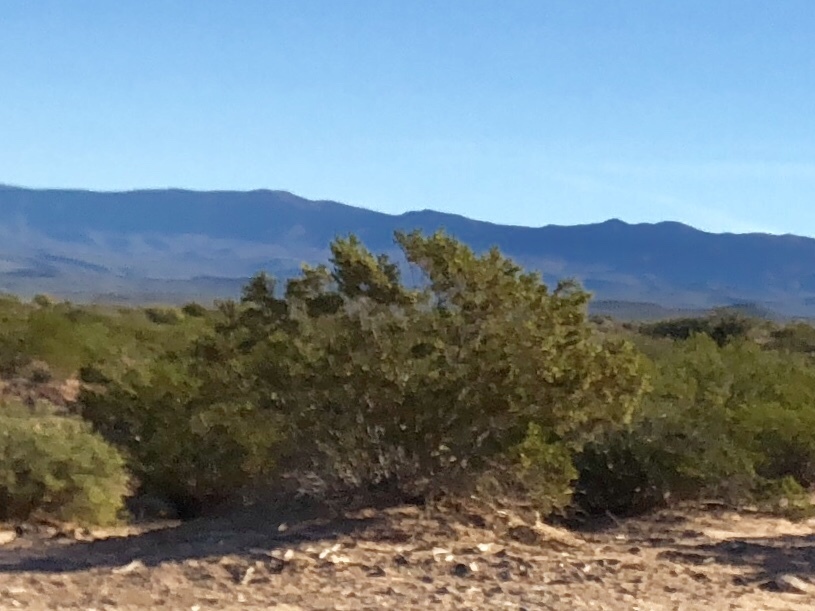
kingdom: Plantae
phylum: Tracheophyta
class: Magnoliopsida
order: Zygophyllales
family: Zygophyllaceae
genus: Larrea
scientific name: Larrea tridentata
